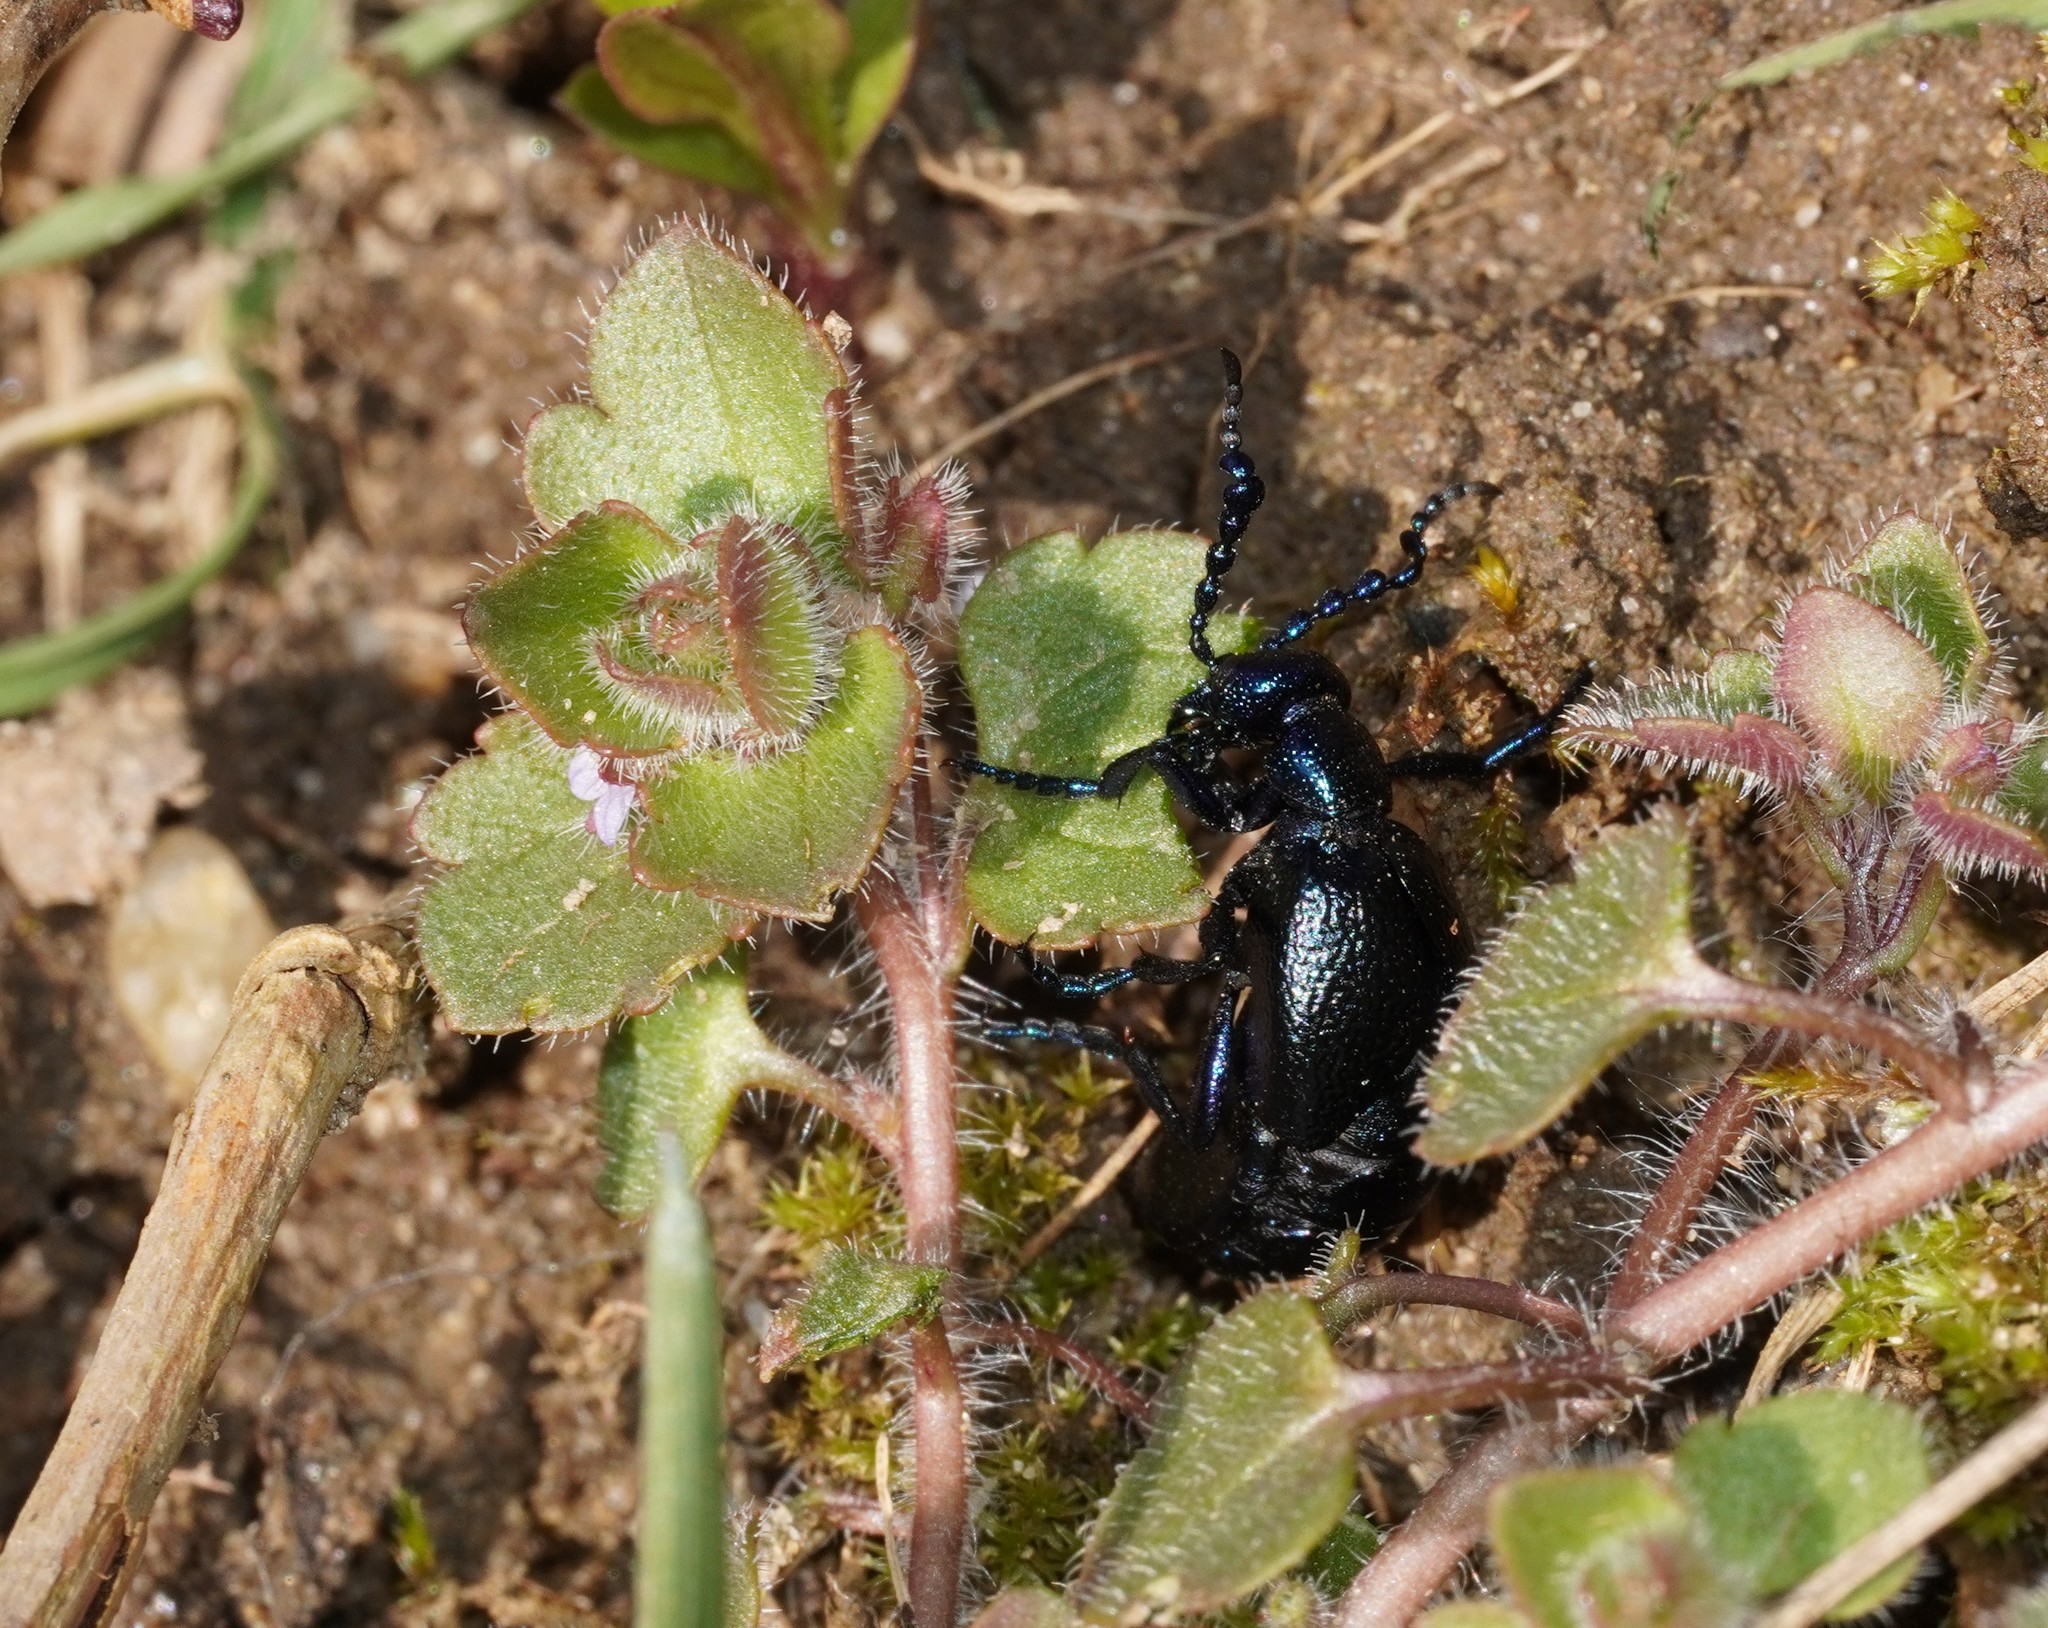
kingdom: Animalia
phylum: Arthropoda
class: Insecta
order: Coleoptera
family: Meloidae
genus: Meloe
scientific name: Meloe proscarabaeus
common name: Black oil-beetle
